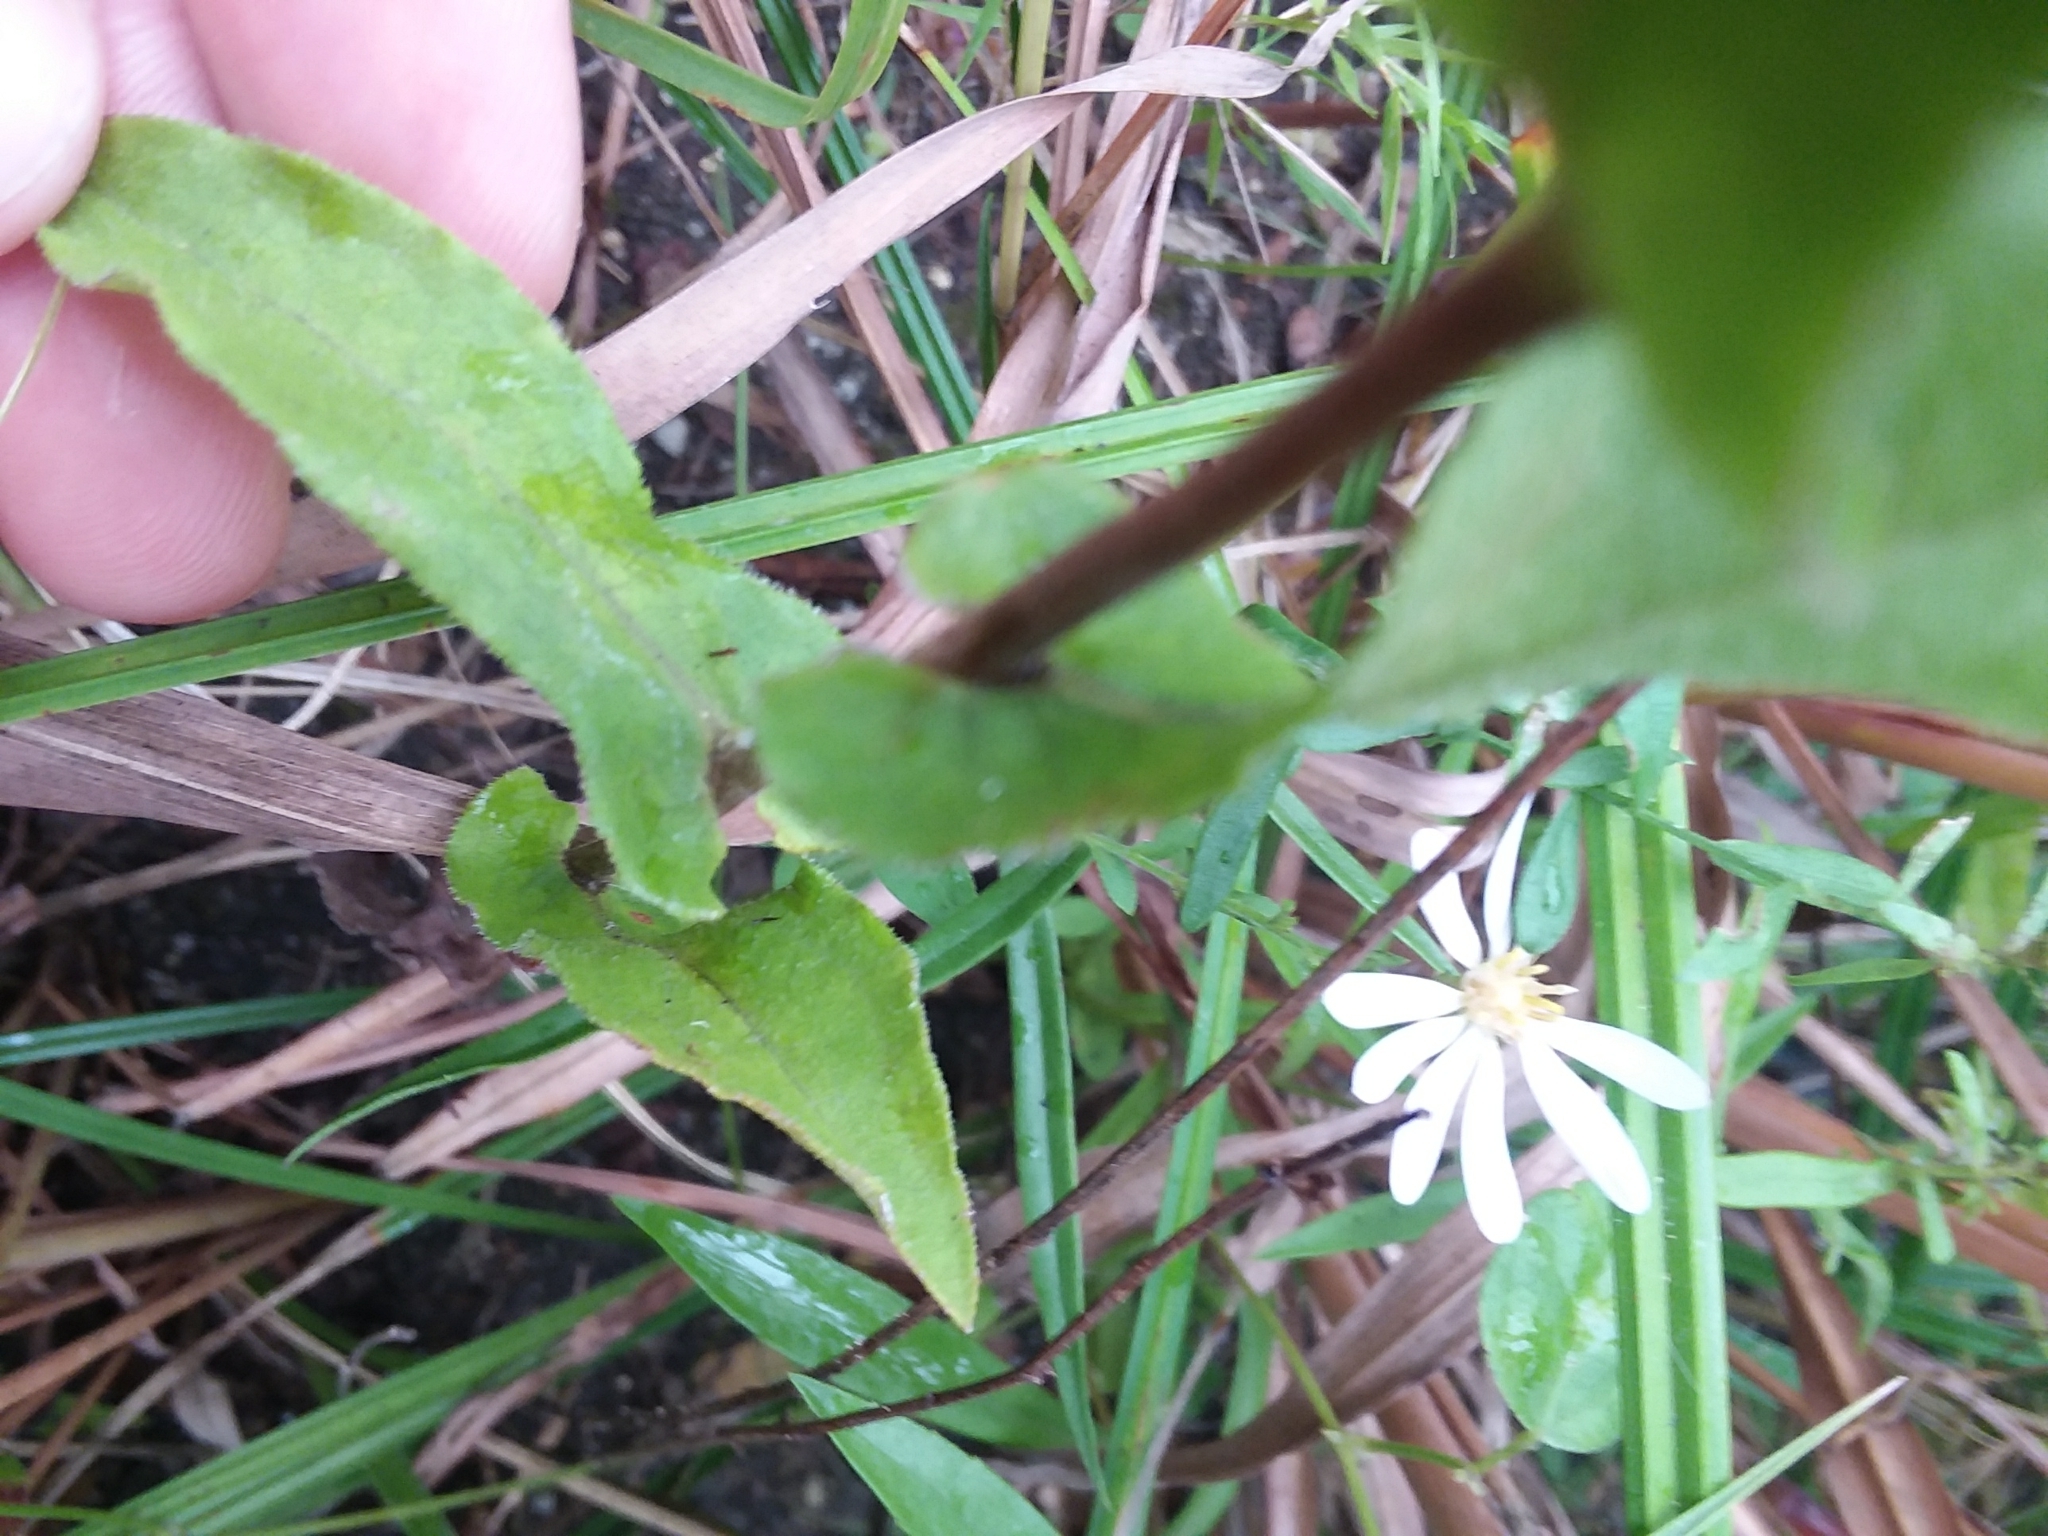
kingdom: Plantae
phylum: Tracheophyta
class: Magnoliopsida
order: Asterales
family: Asteraceae
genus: Symphyotrichum
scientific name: Symphyotrichum patens
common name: Late purple aster
